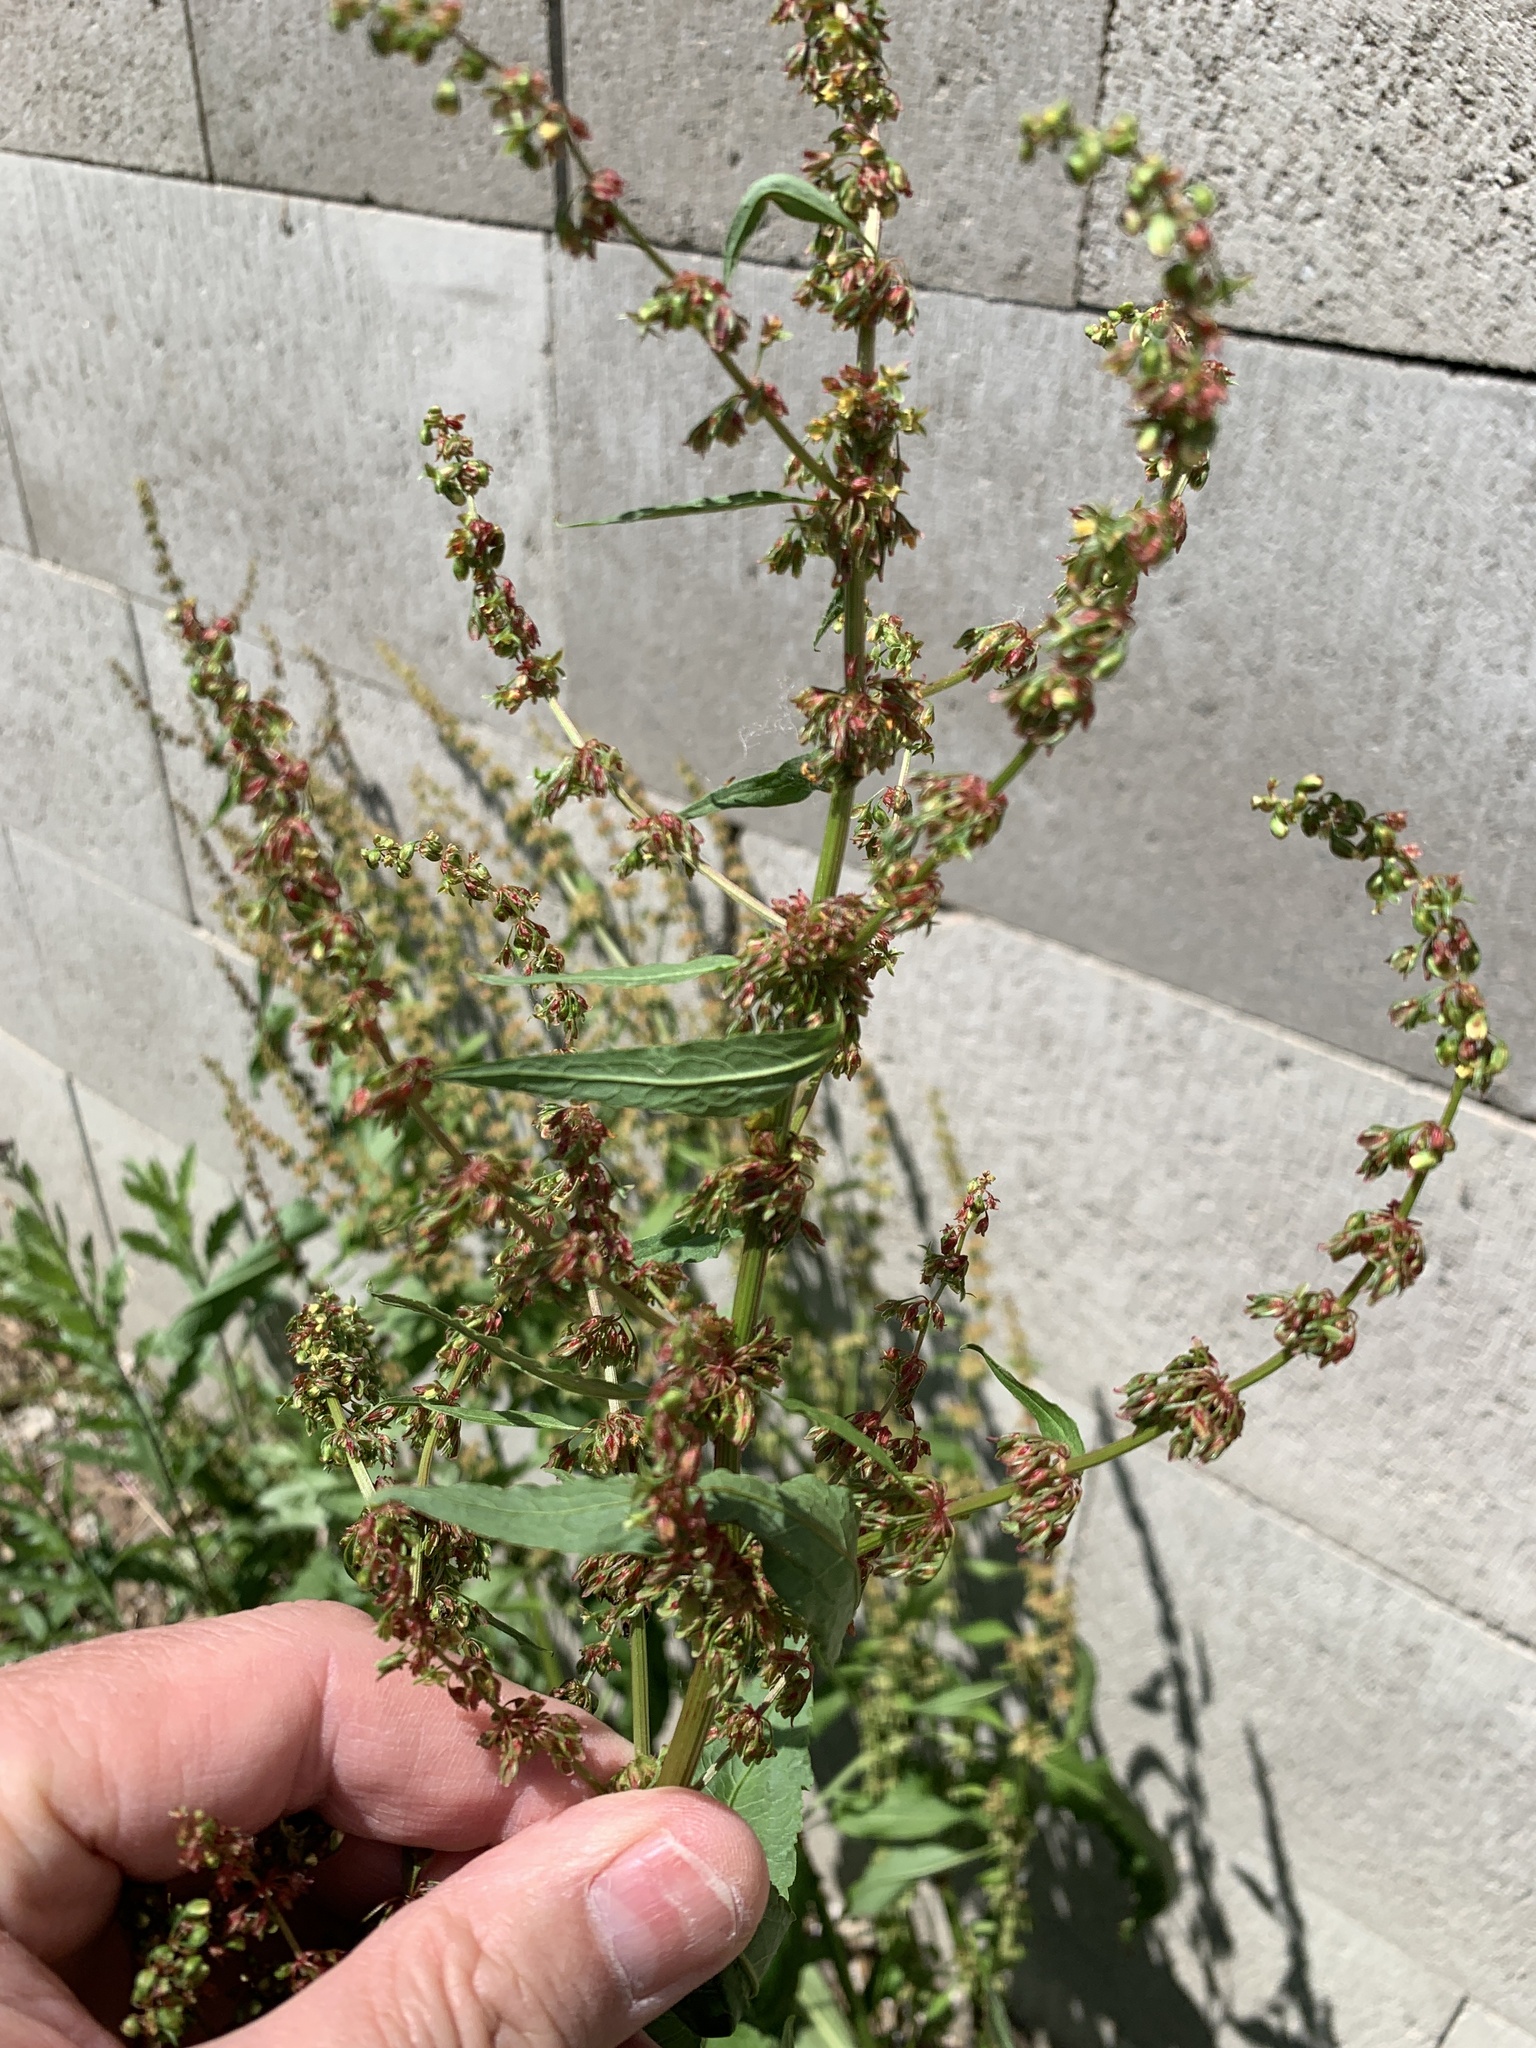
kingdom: Plantae
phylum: Tracheophyta
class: Magnoliopsida
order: Caryophyllales
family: Polygonaceae
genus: Rumex
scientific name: Rumex obtusifolius
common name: Bitter dock
